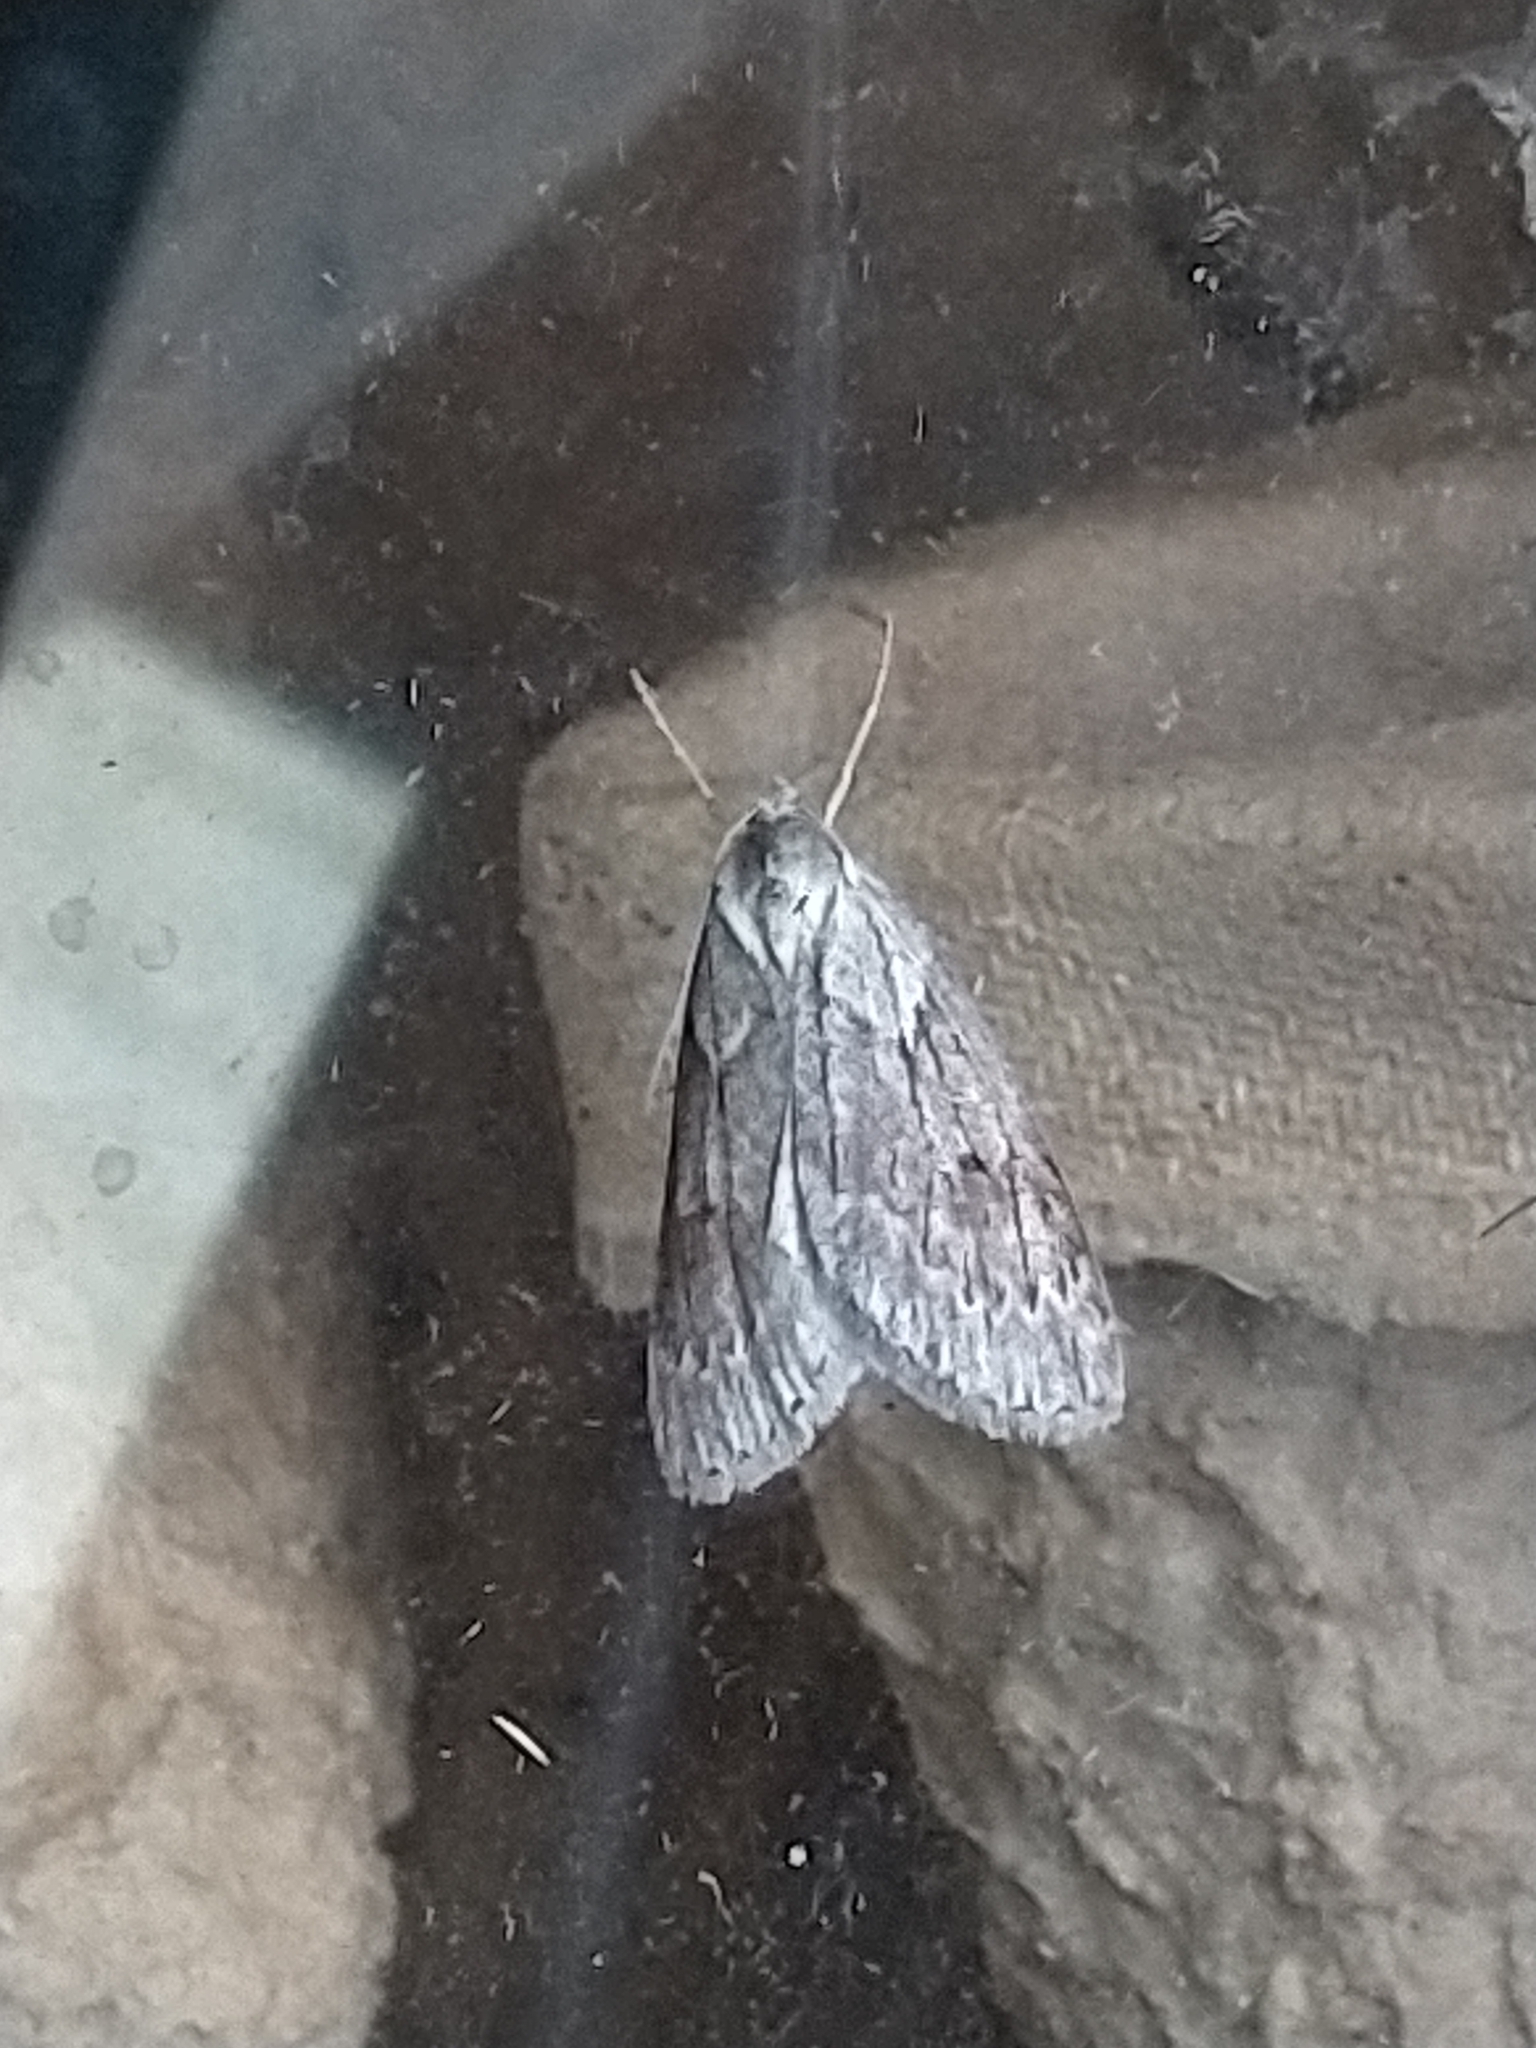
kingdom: Animalia
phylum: Arthropoda
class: Insecta
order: Lepidoptera
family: Geometridae
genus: Pachycnemia
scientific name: Pachycnemia hippocastanaria
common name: Horse chestnut
